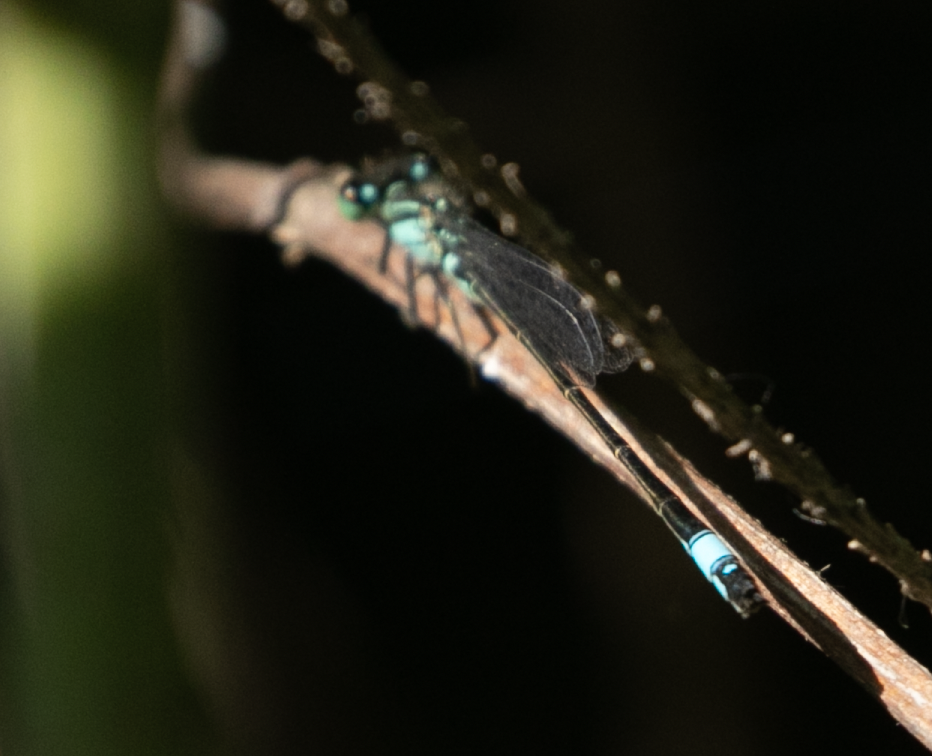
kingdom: Animalia
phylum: Arthropoda
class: Insecta
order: Odonata
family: Coenagrionidae
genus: Ischnura
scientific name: Ischnura elegans
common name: Blue-tailed damselfly
